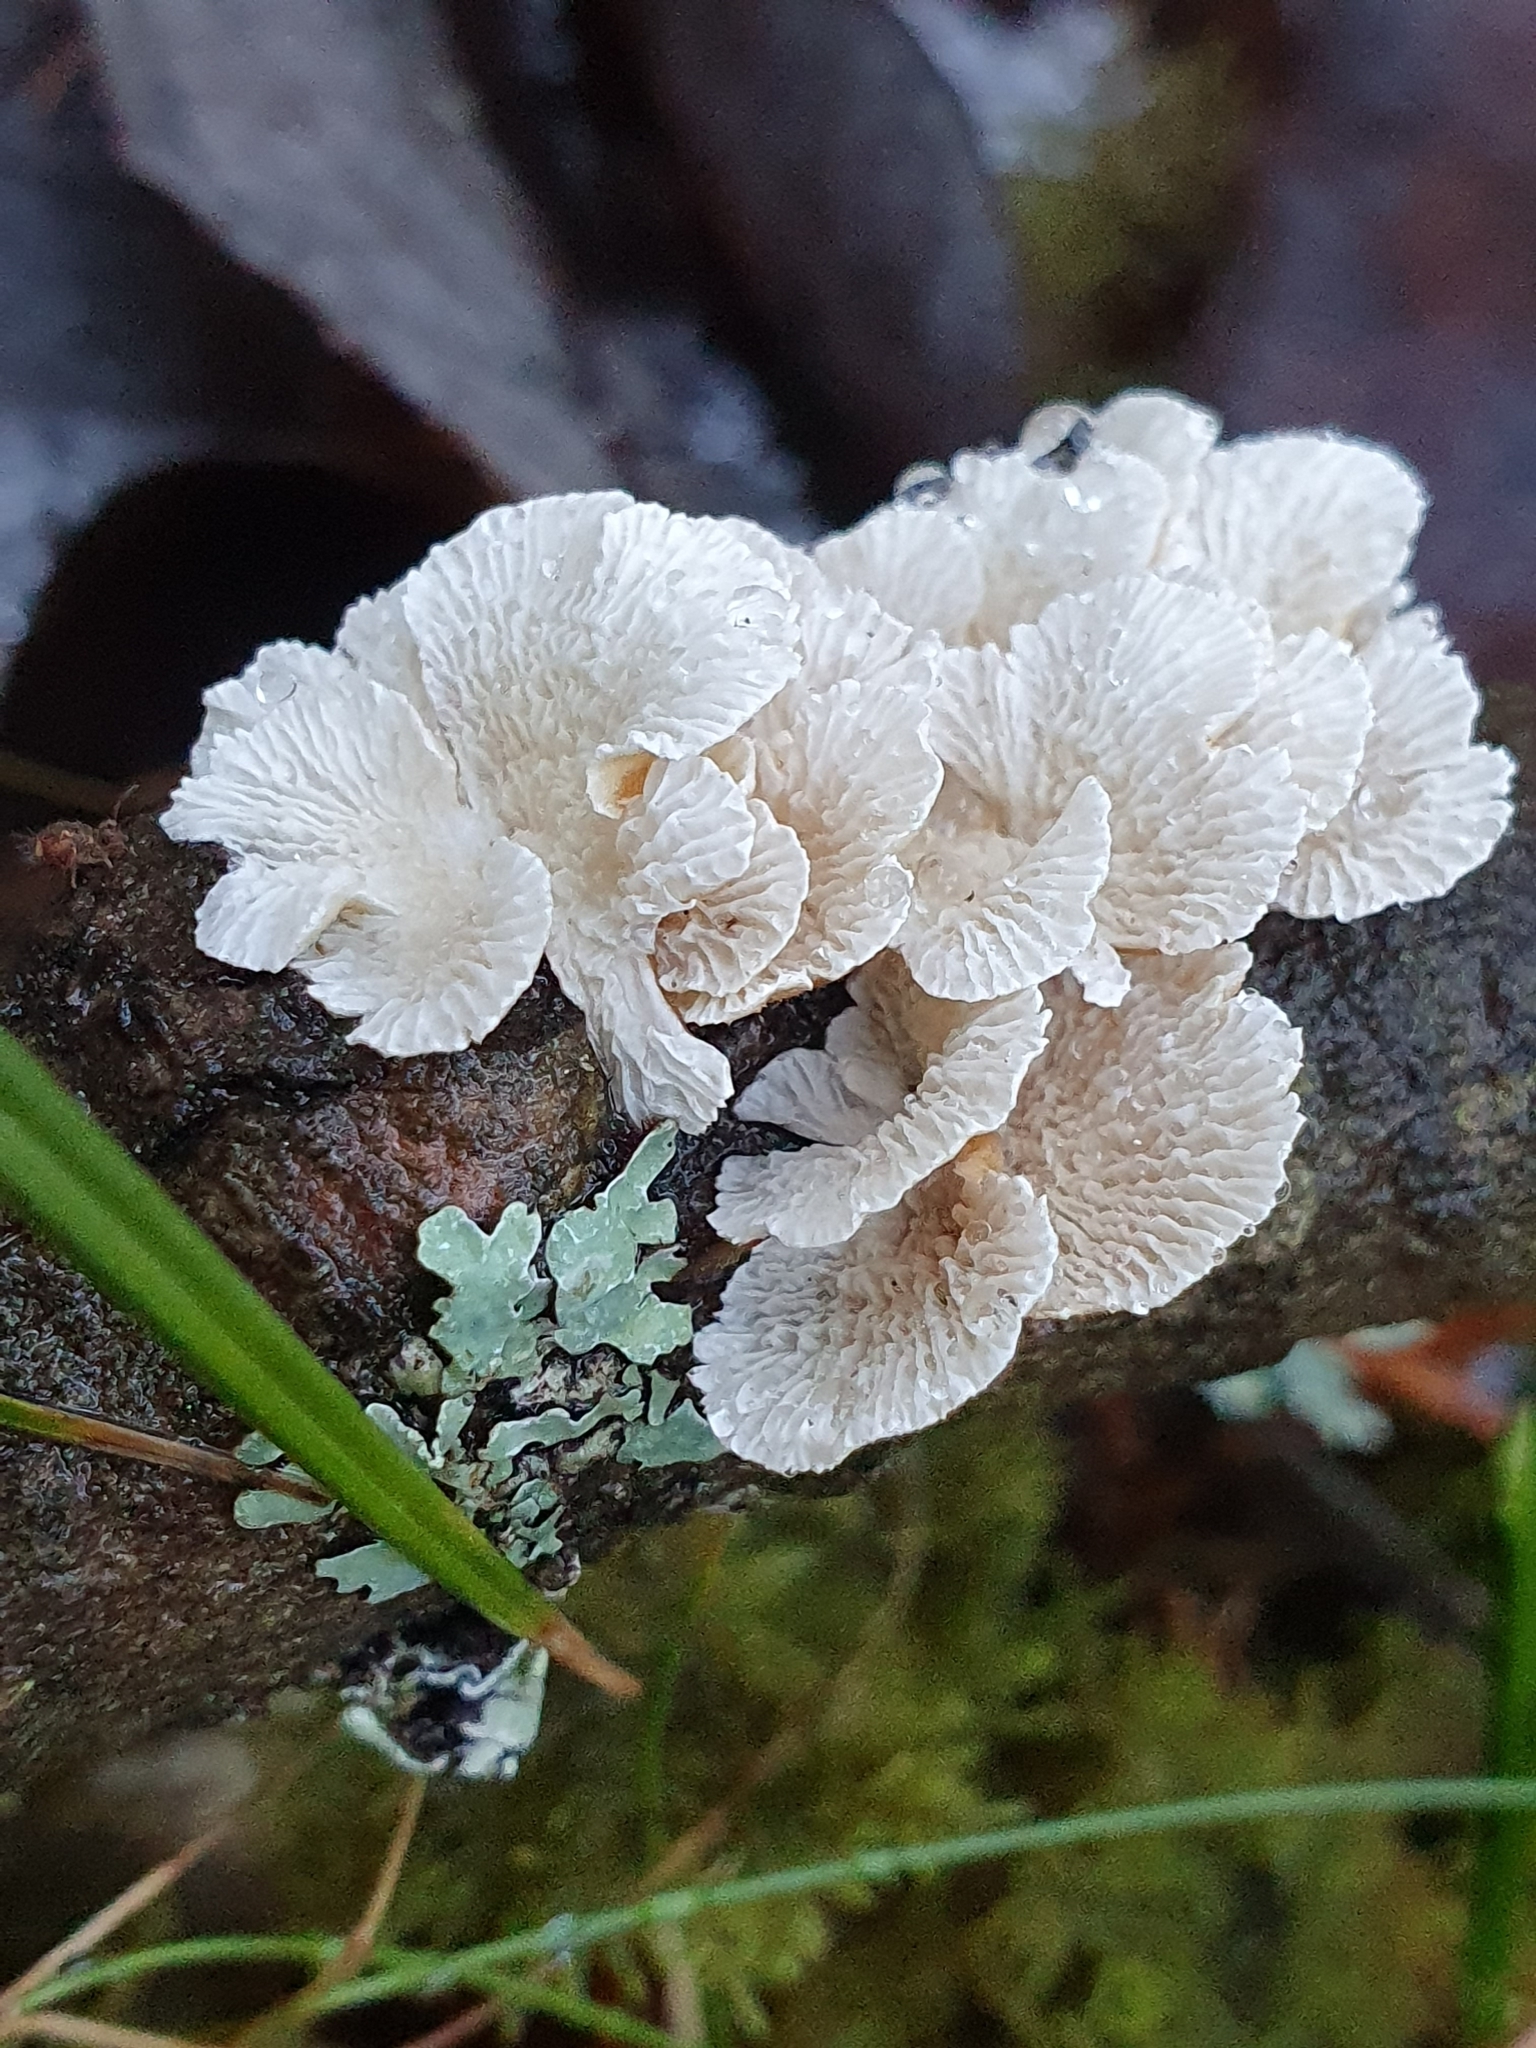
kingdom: Fungi
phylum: Basidiomycota
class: Agaricomycetes
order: Amylocorticiales
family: Amylocorticiaceae
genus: Plicaturopsis
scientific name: Plicaturopsis crispa
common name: Crimped gill
